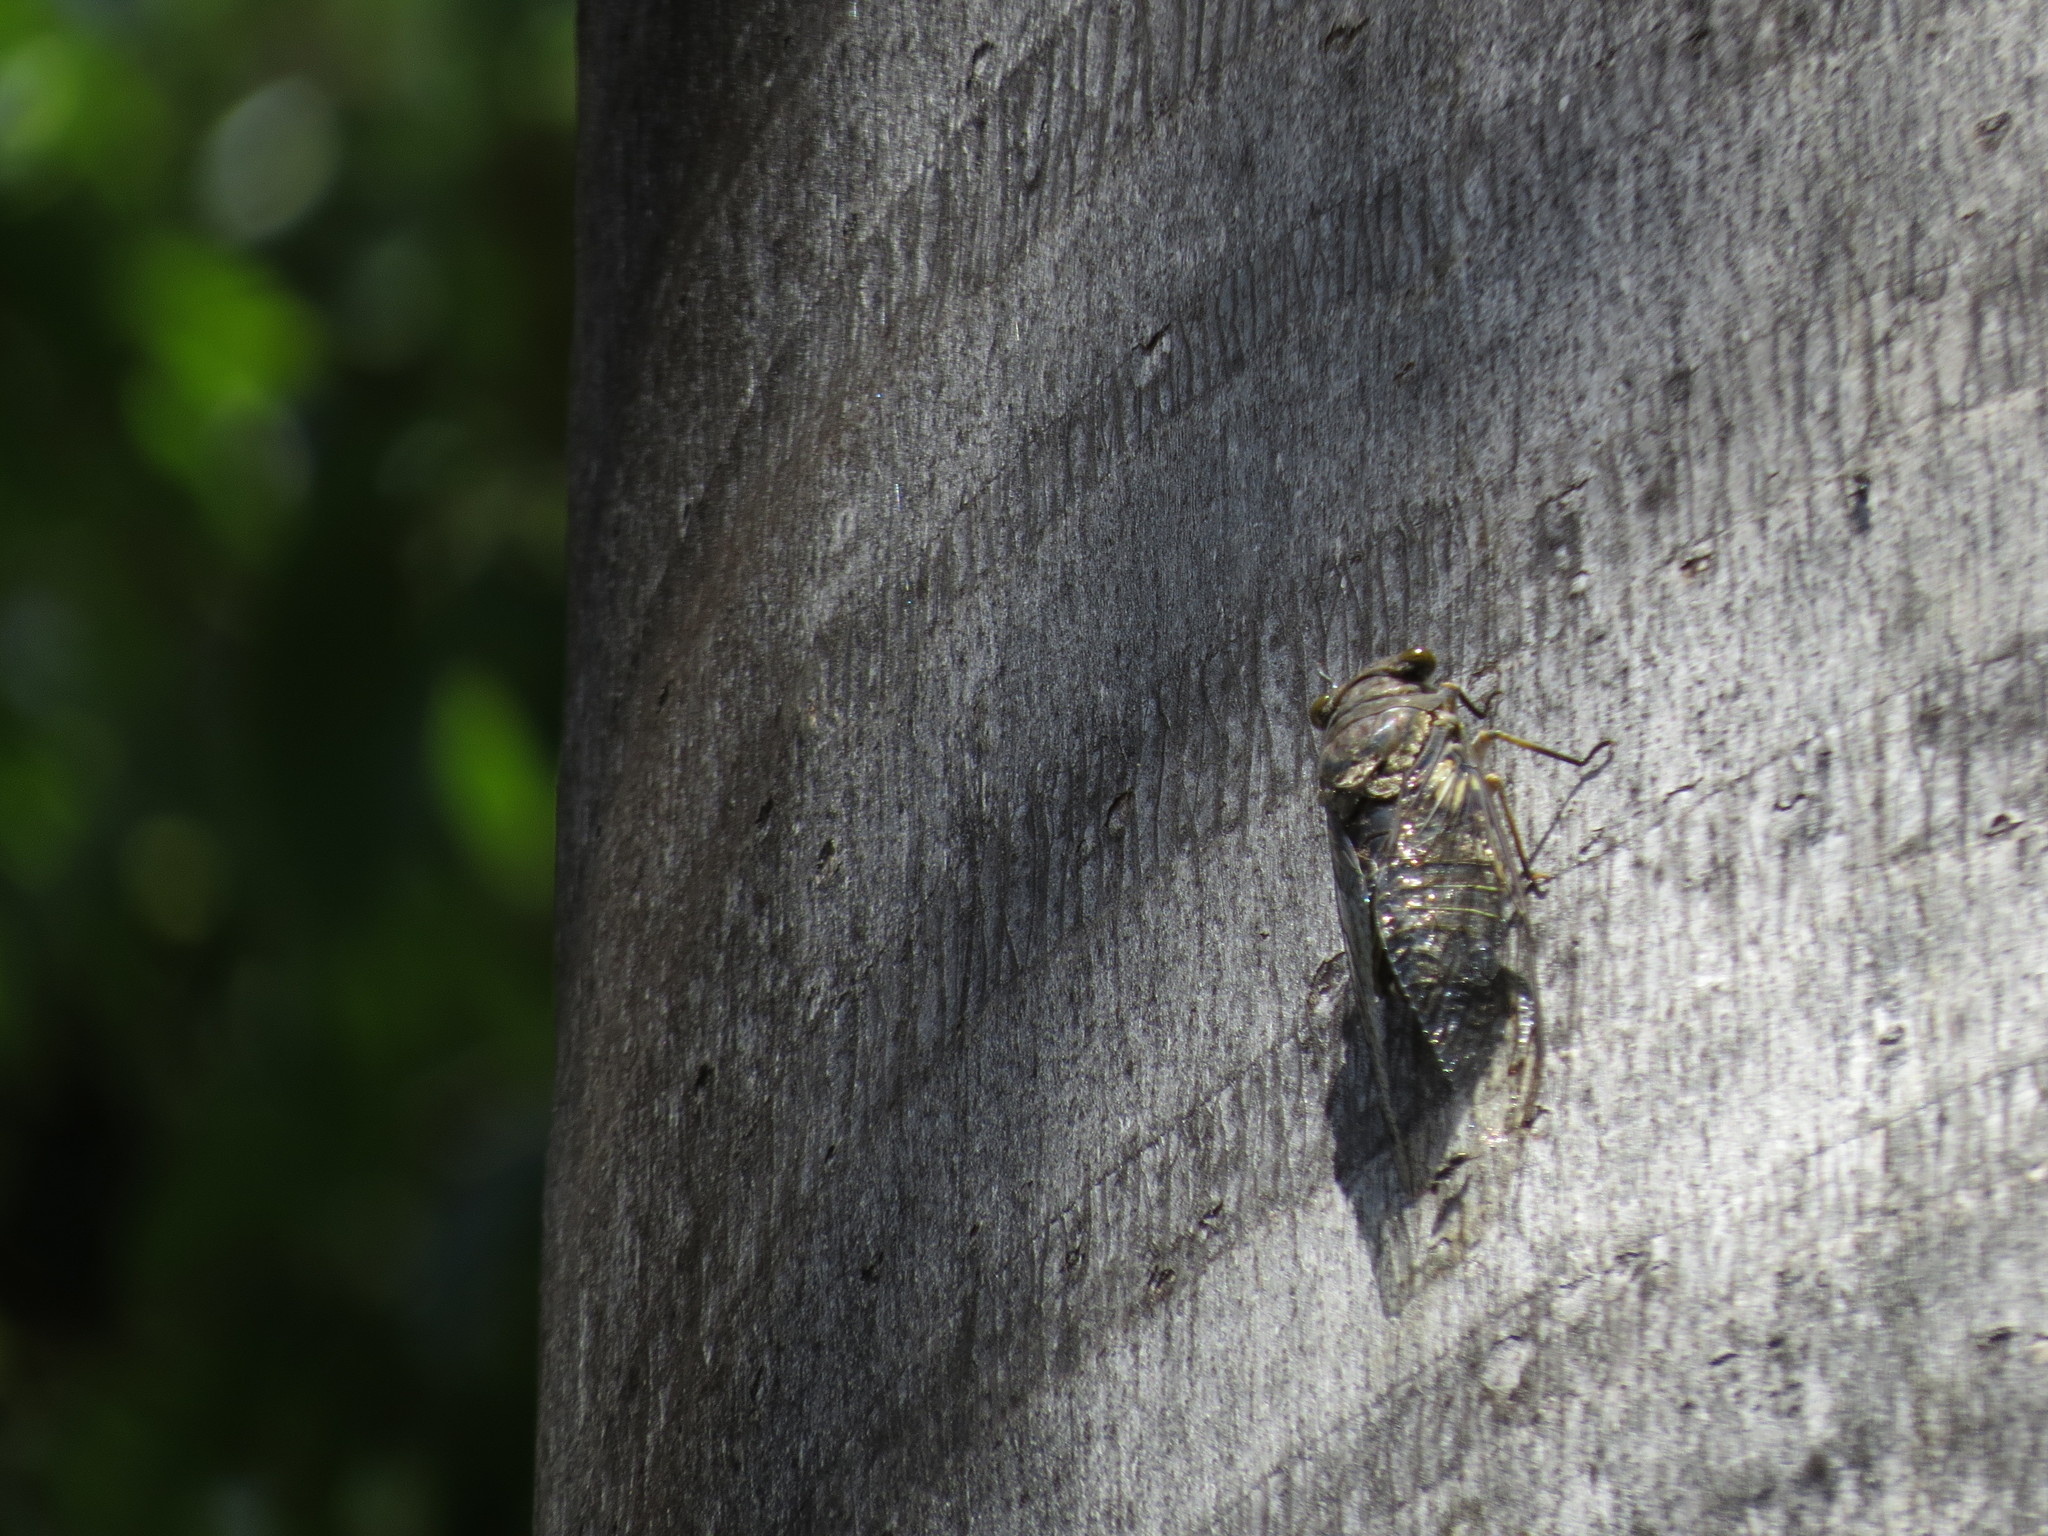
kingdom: Animalia
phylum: Arthropoda
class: Insecta
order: Hemiptera
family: Cicadidae
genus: Quesada
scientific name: Quesada gigas
